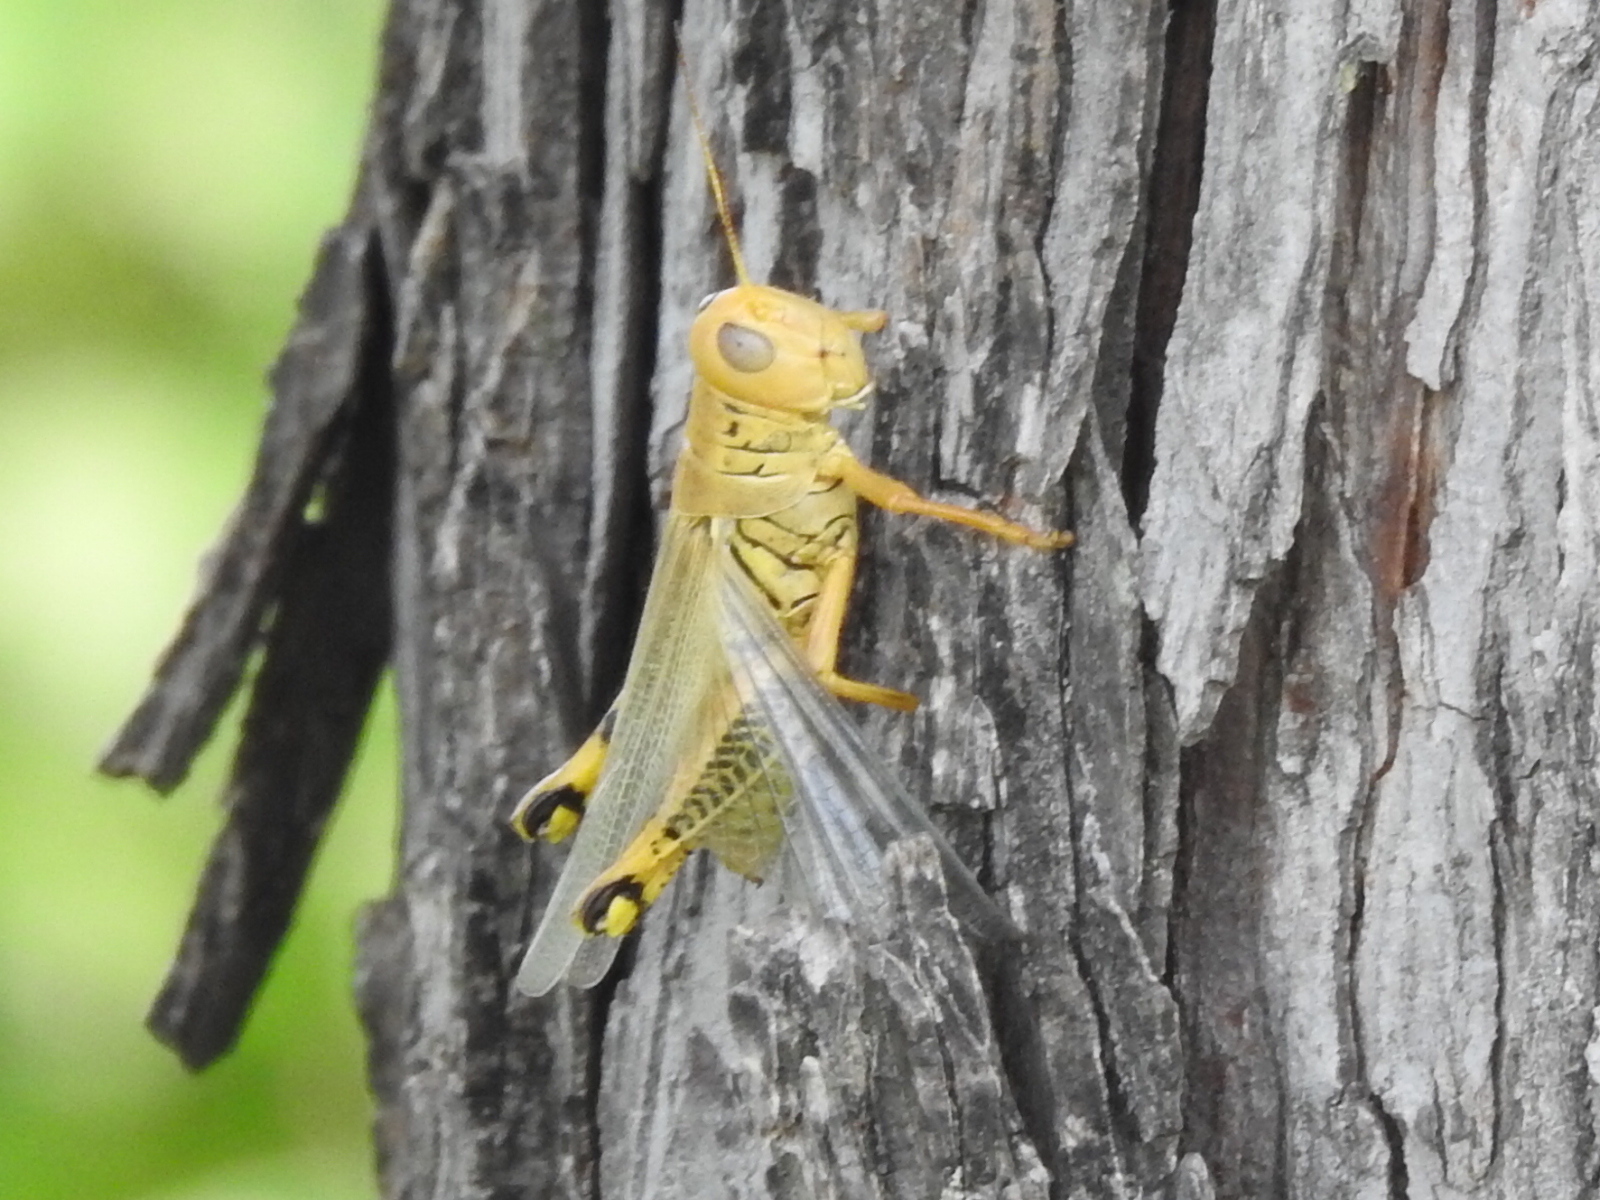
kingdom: Animalia
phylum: Arthropoda
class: Insecta
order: Orthoptera
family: Acrididae
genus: Melanoplus
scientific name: Melanoplus differentialis
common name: Differential grasshopper
